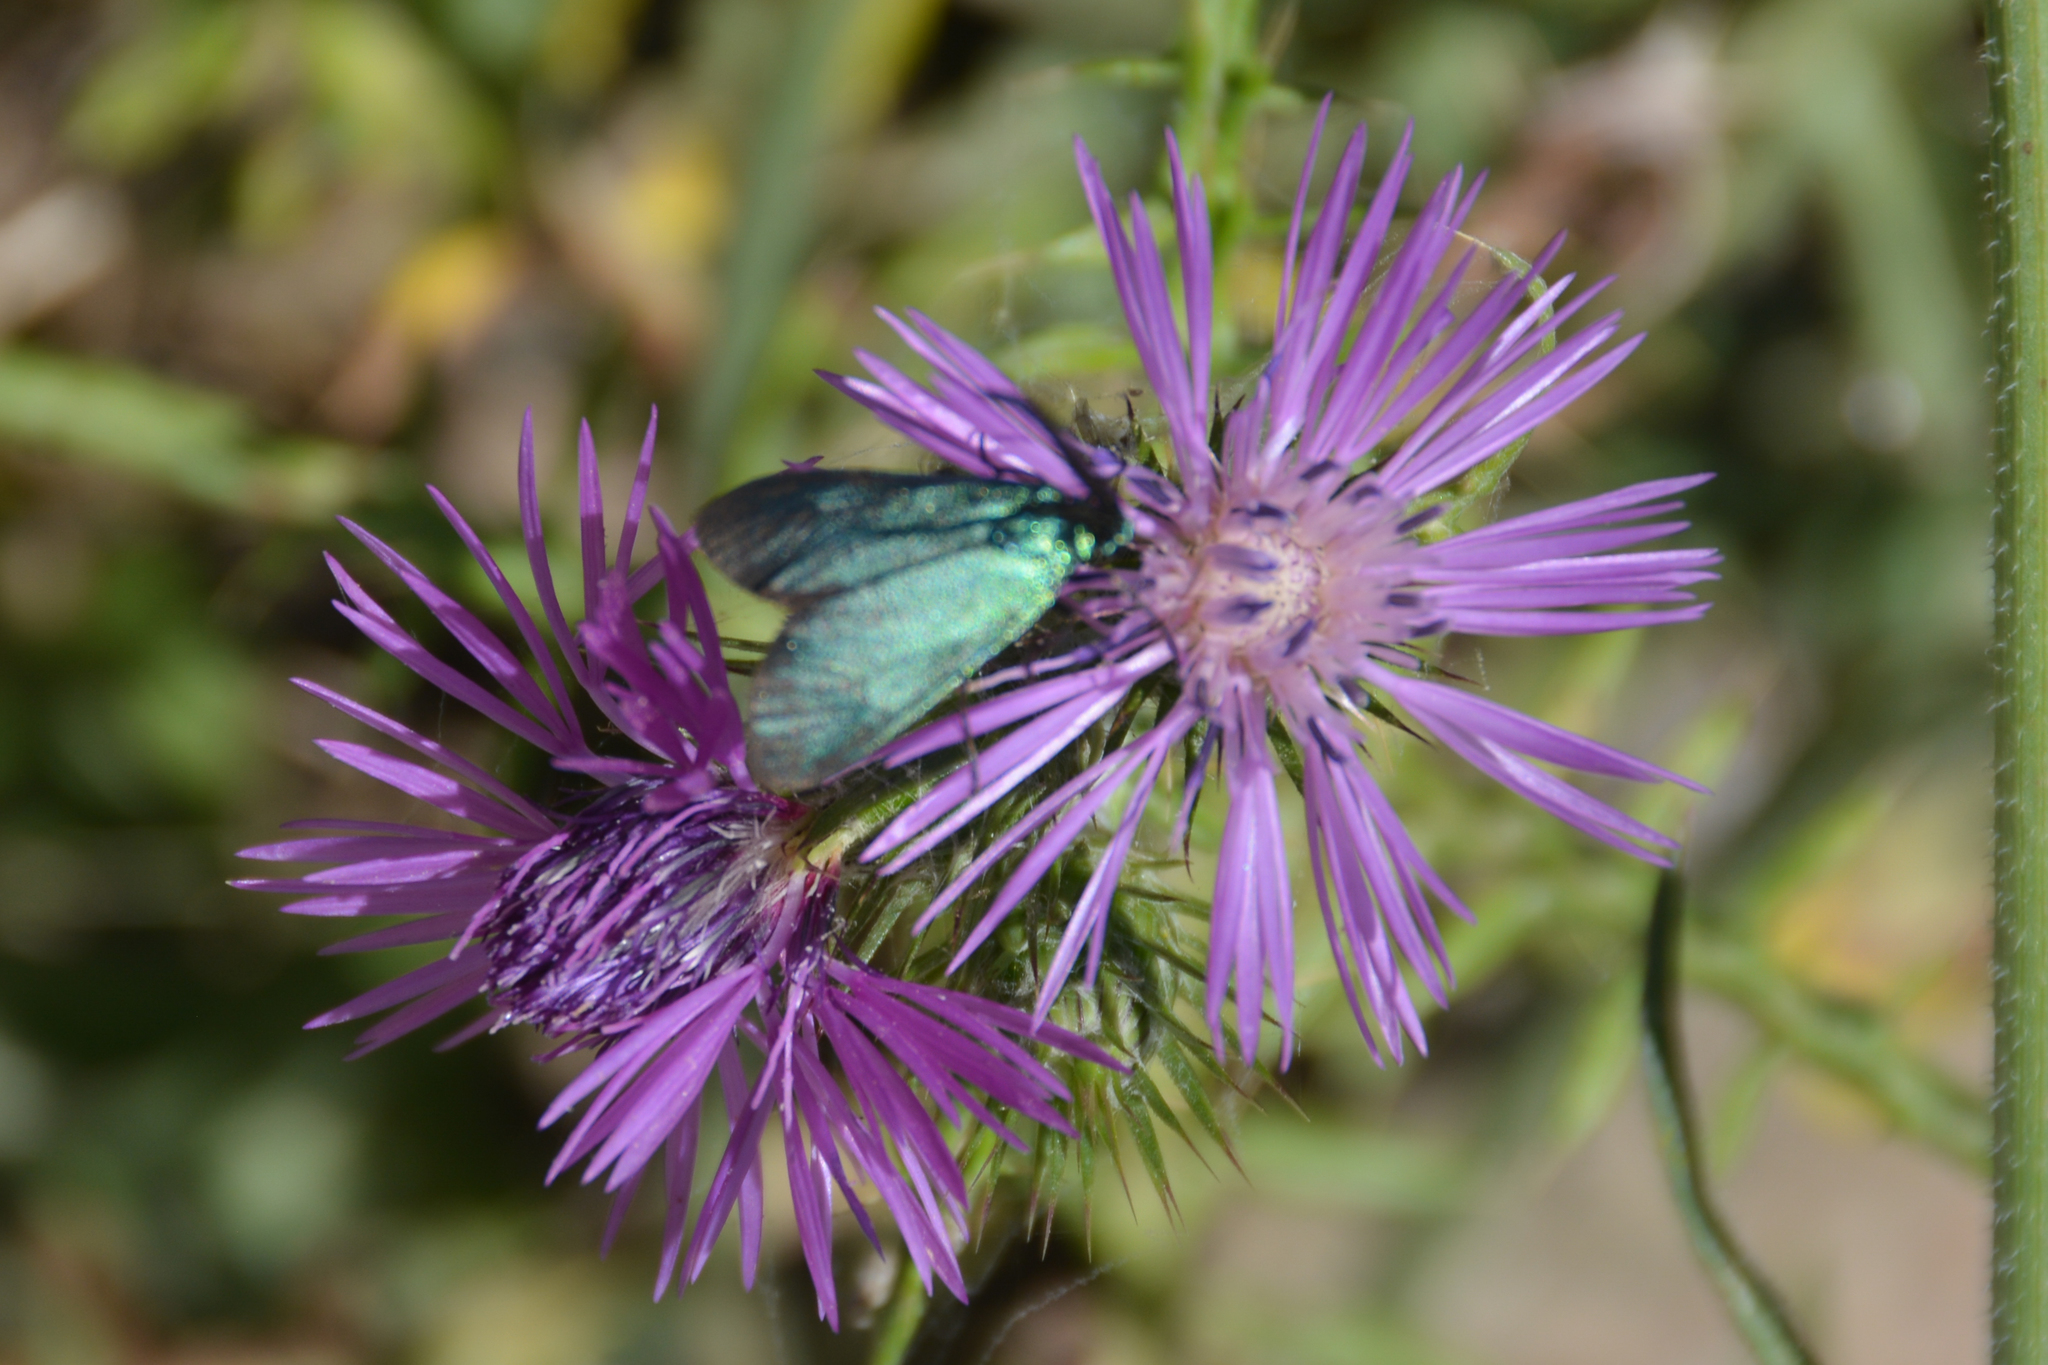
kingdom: Plantae
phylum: Tracheophyta
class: Magnoliopsida
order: Asterales
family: Asteraceae
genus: Galactites
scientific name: Galactites tomentosa
